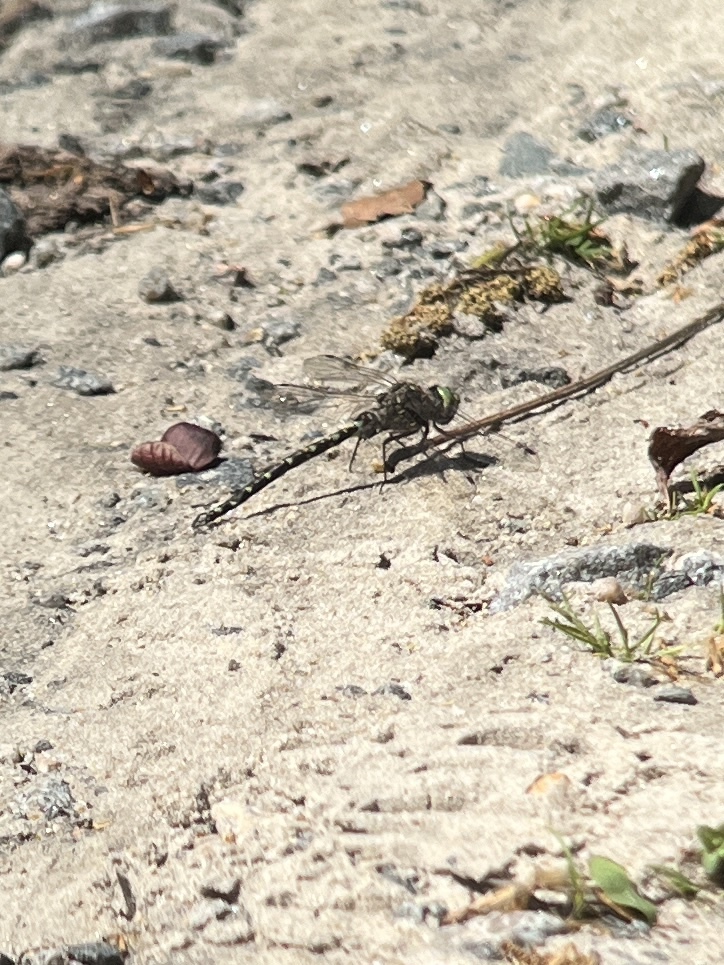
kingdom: Animalia
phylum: Arthropoda
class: Insecta
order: Odonata
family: Aeshnidae
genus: Gomphaeschna
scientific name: Gomphaeschna furcillata
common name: Harlequin darner
